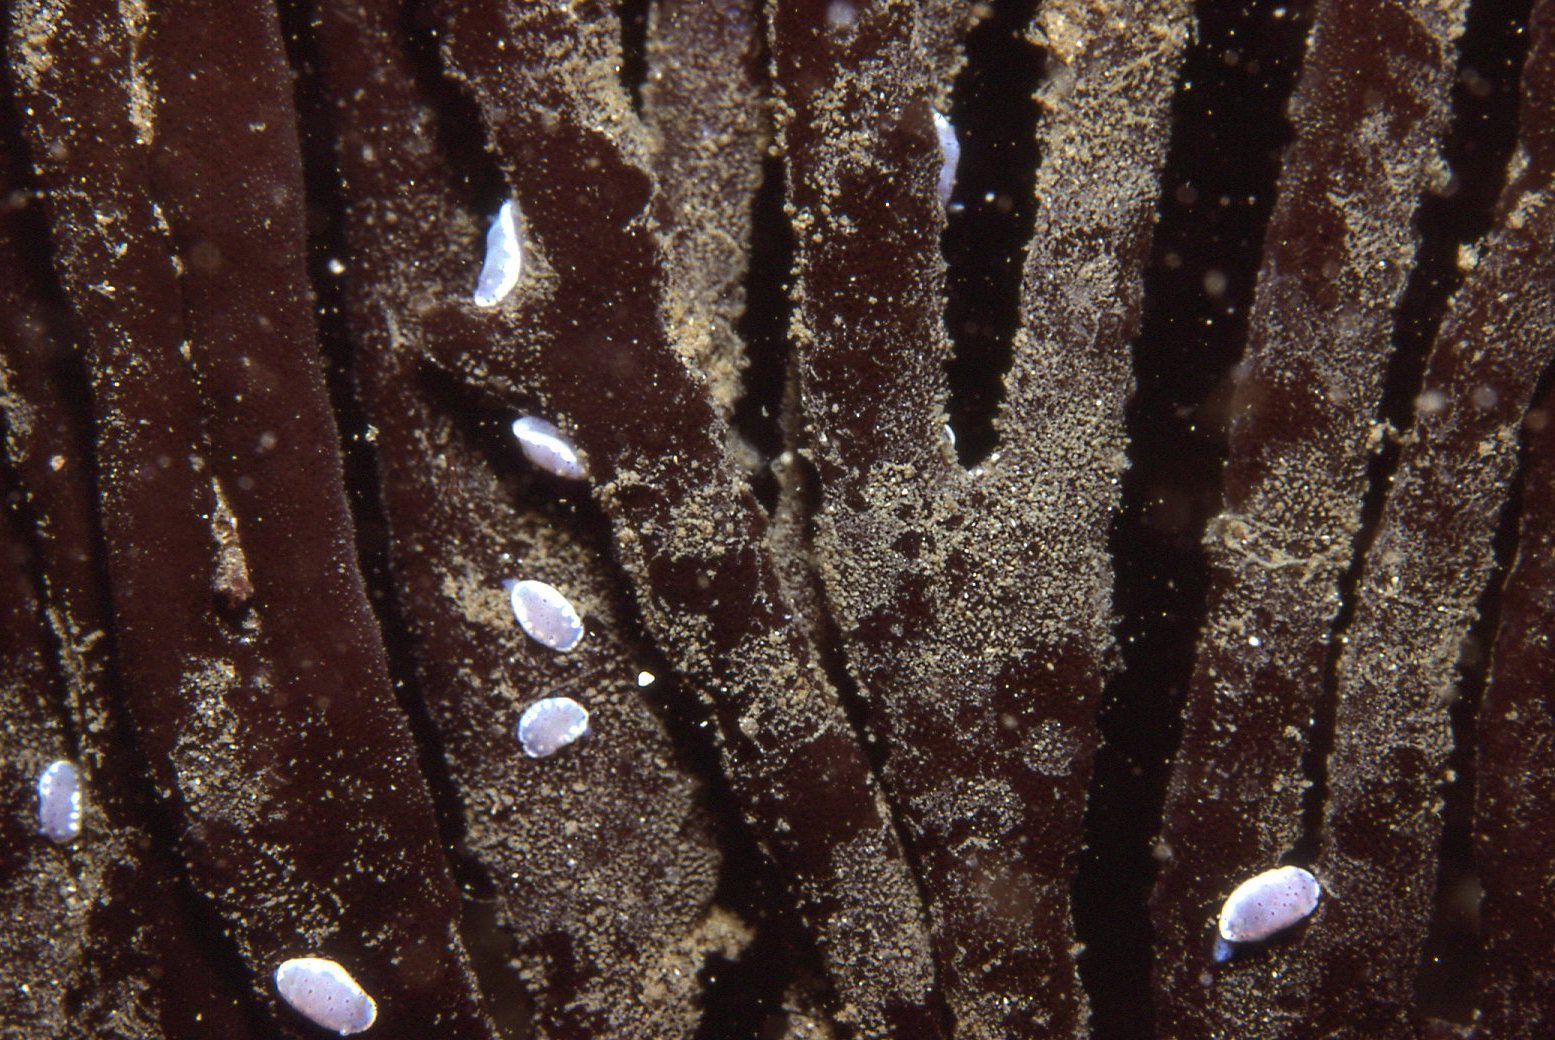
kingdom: Animalia
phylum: Mollusca
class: Gastropoda
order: Nudibranchia
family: Chromodorididae
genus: Goniobranchus
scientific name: Goniobranchus thompsoni
